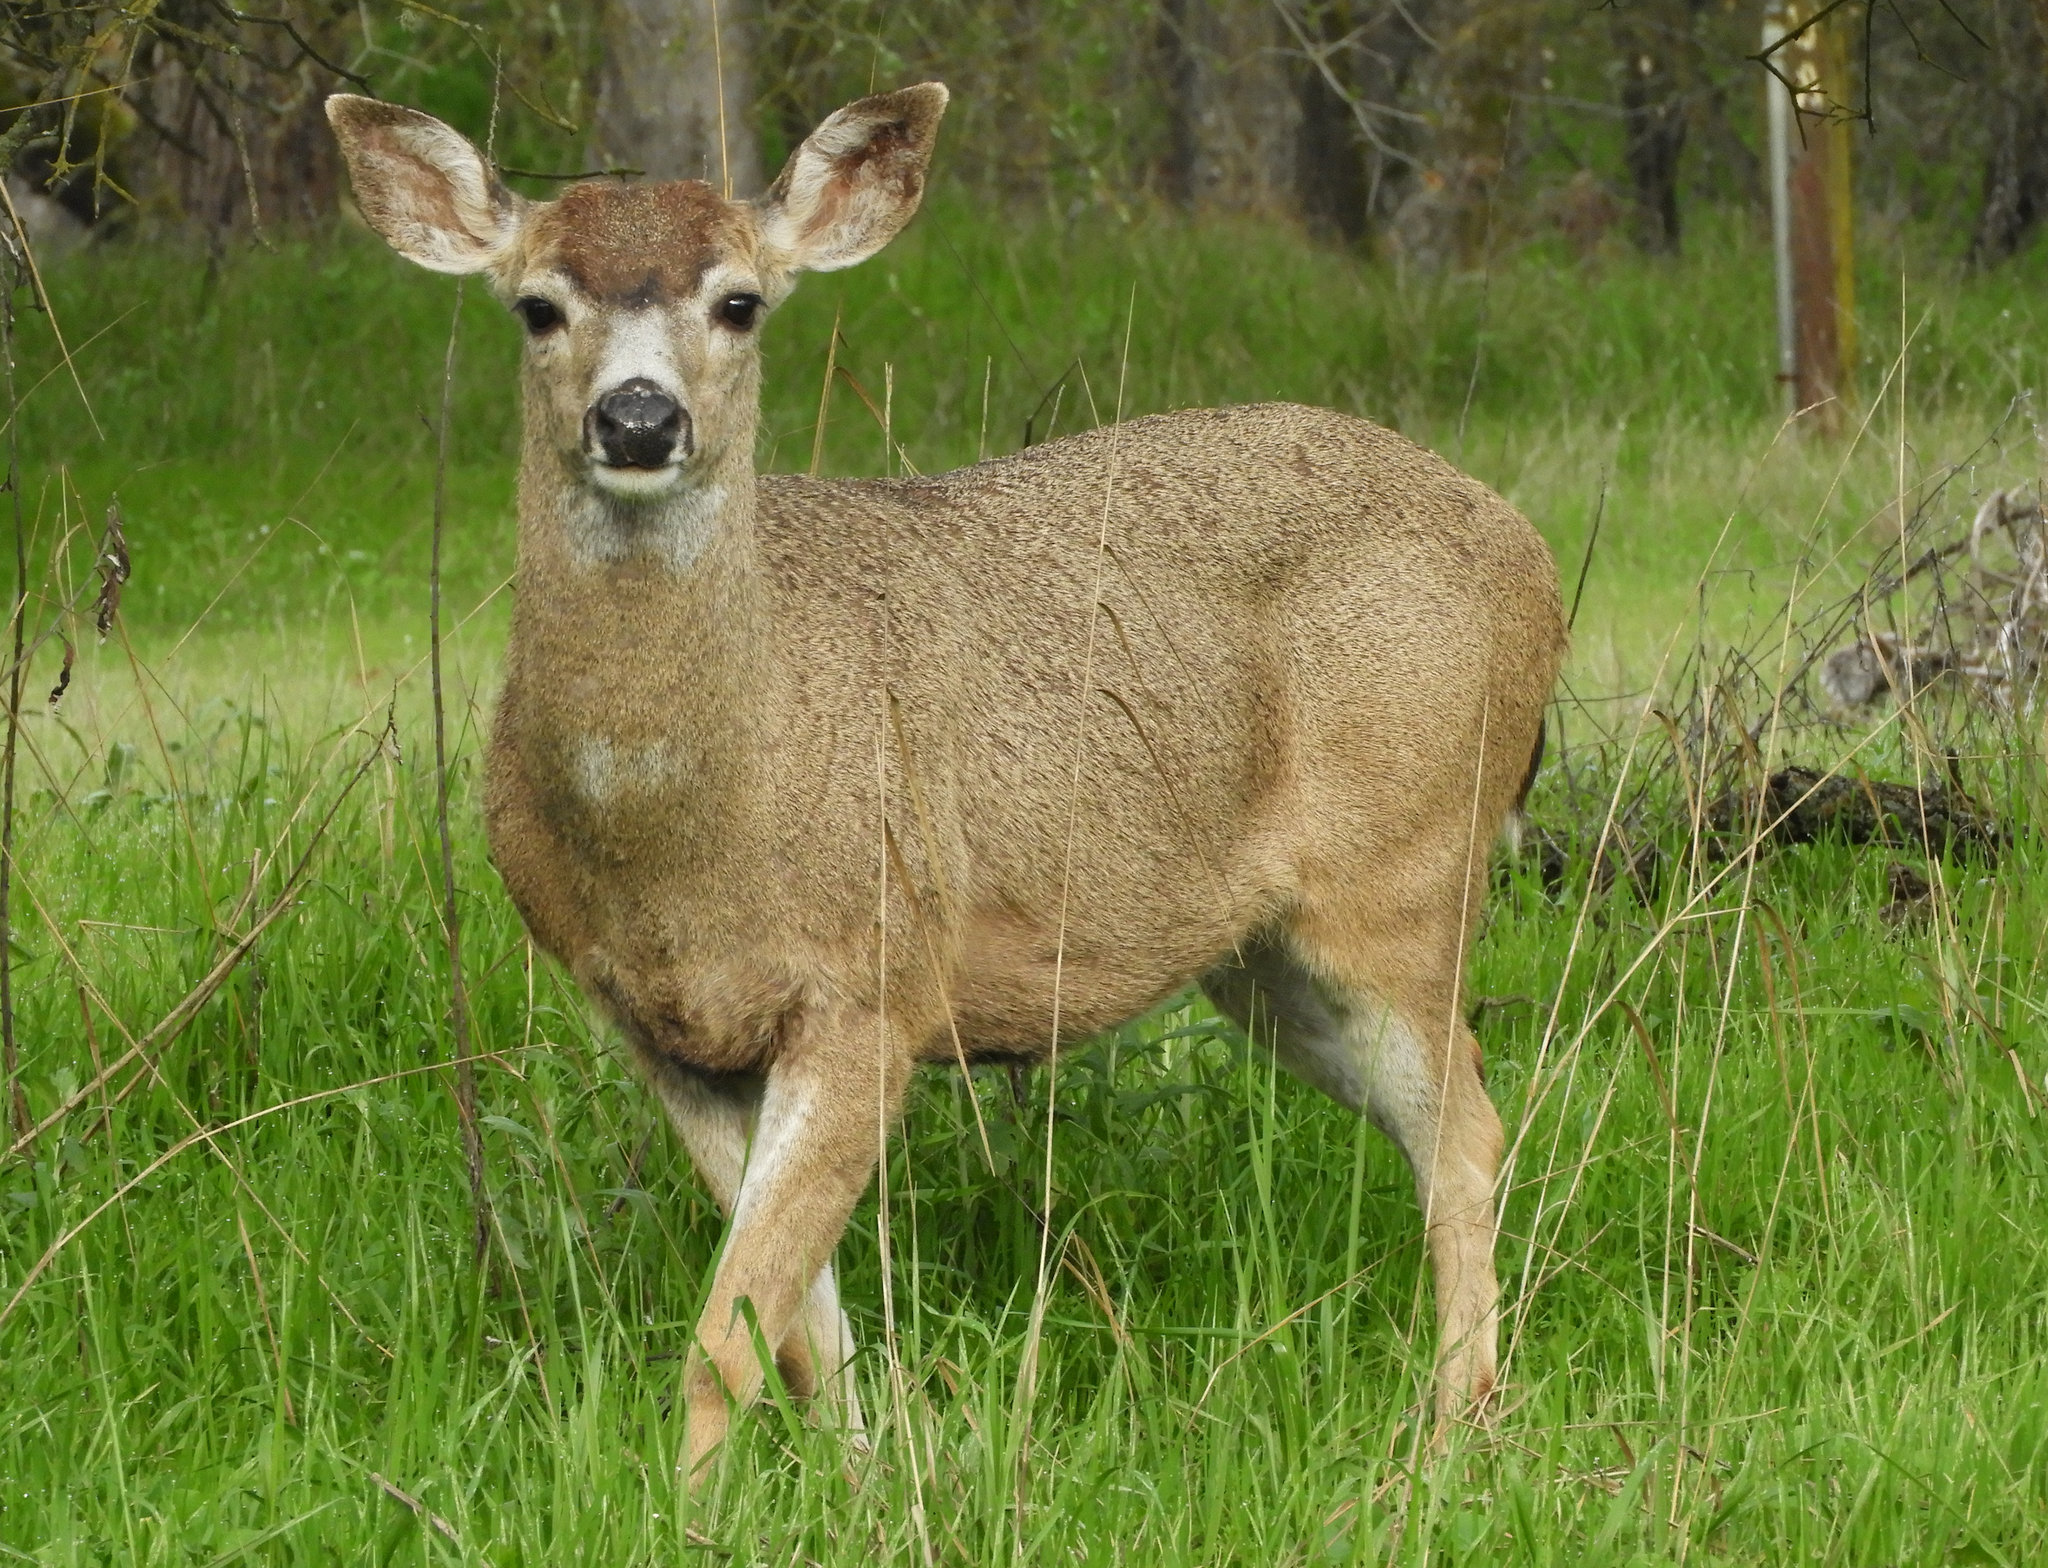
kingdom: Animalia
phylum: Chordata
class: Mammalia
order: Artiodactyla
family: Cervidae
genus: Odocoileus
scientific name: Odocoileus hemionus
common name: Mule deer
